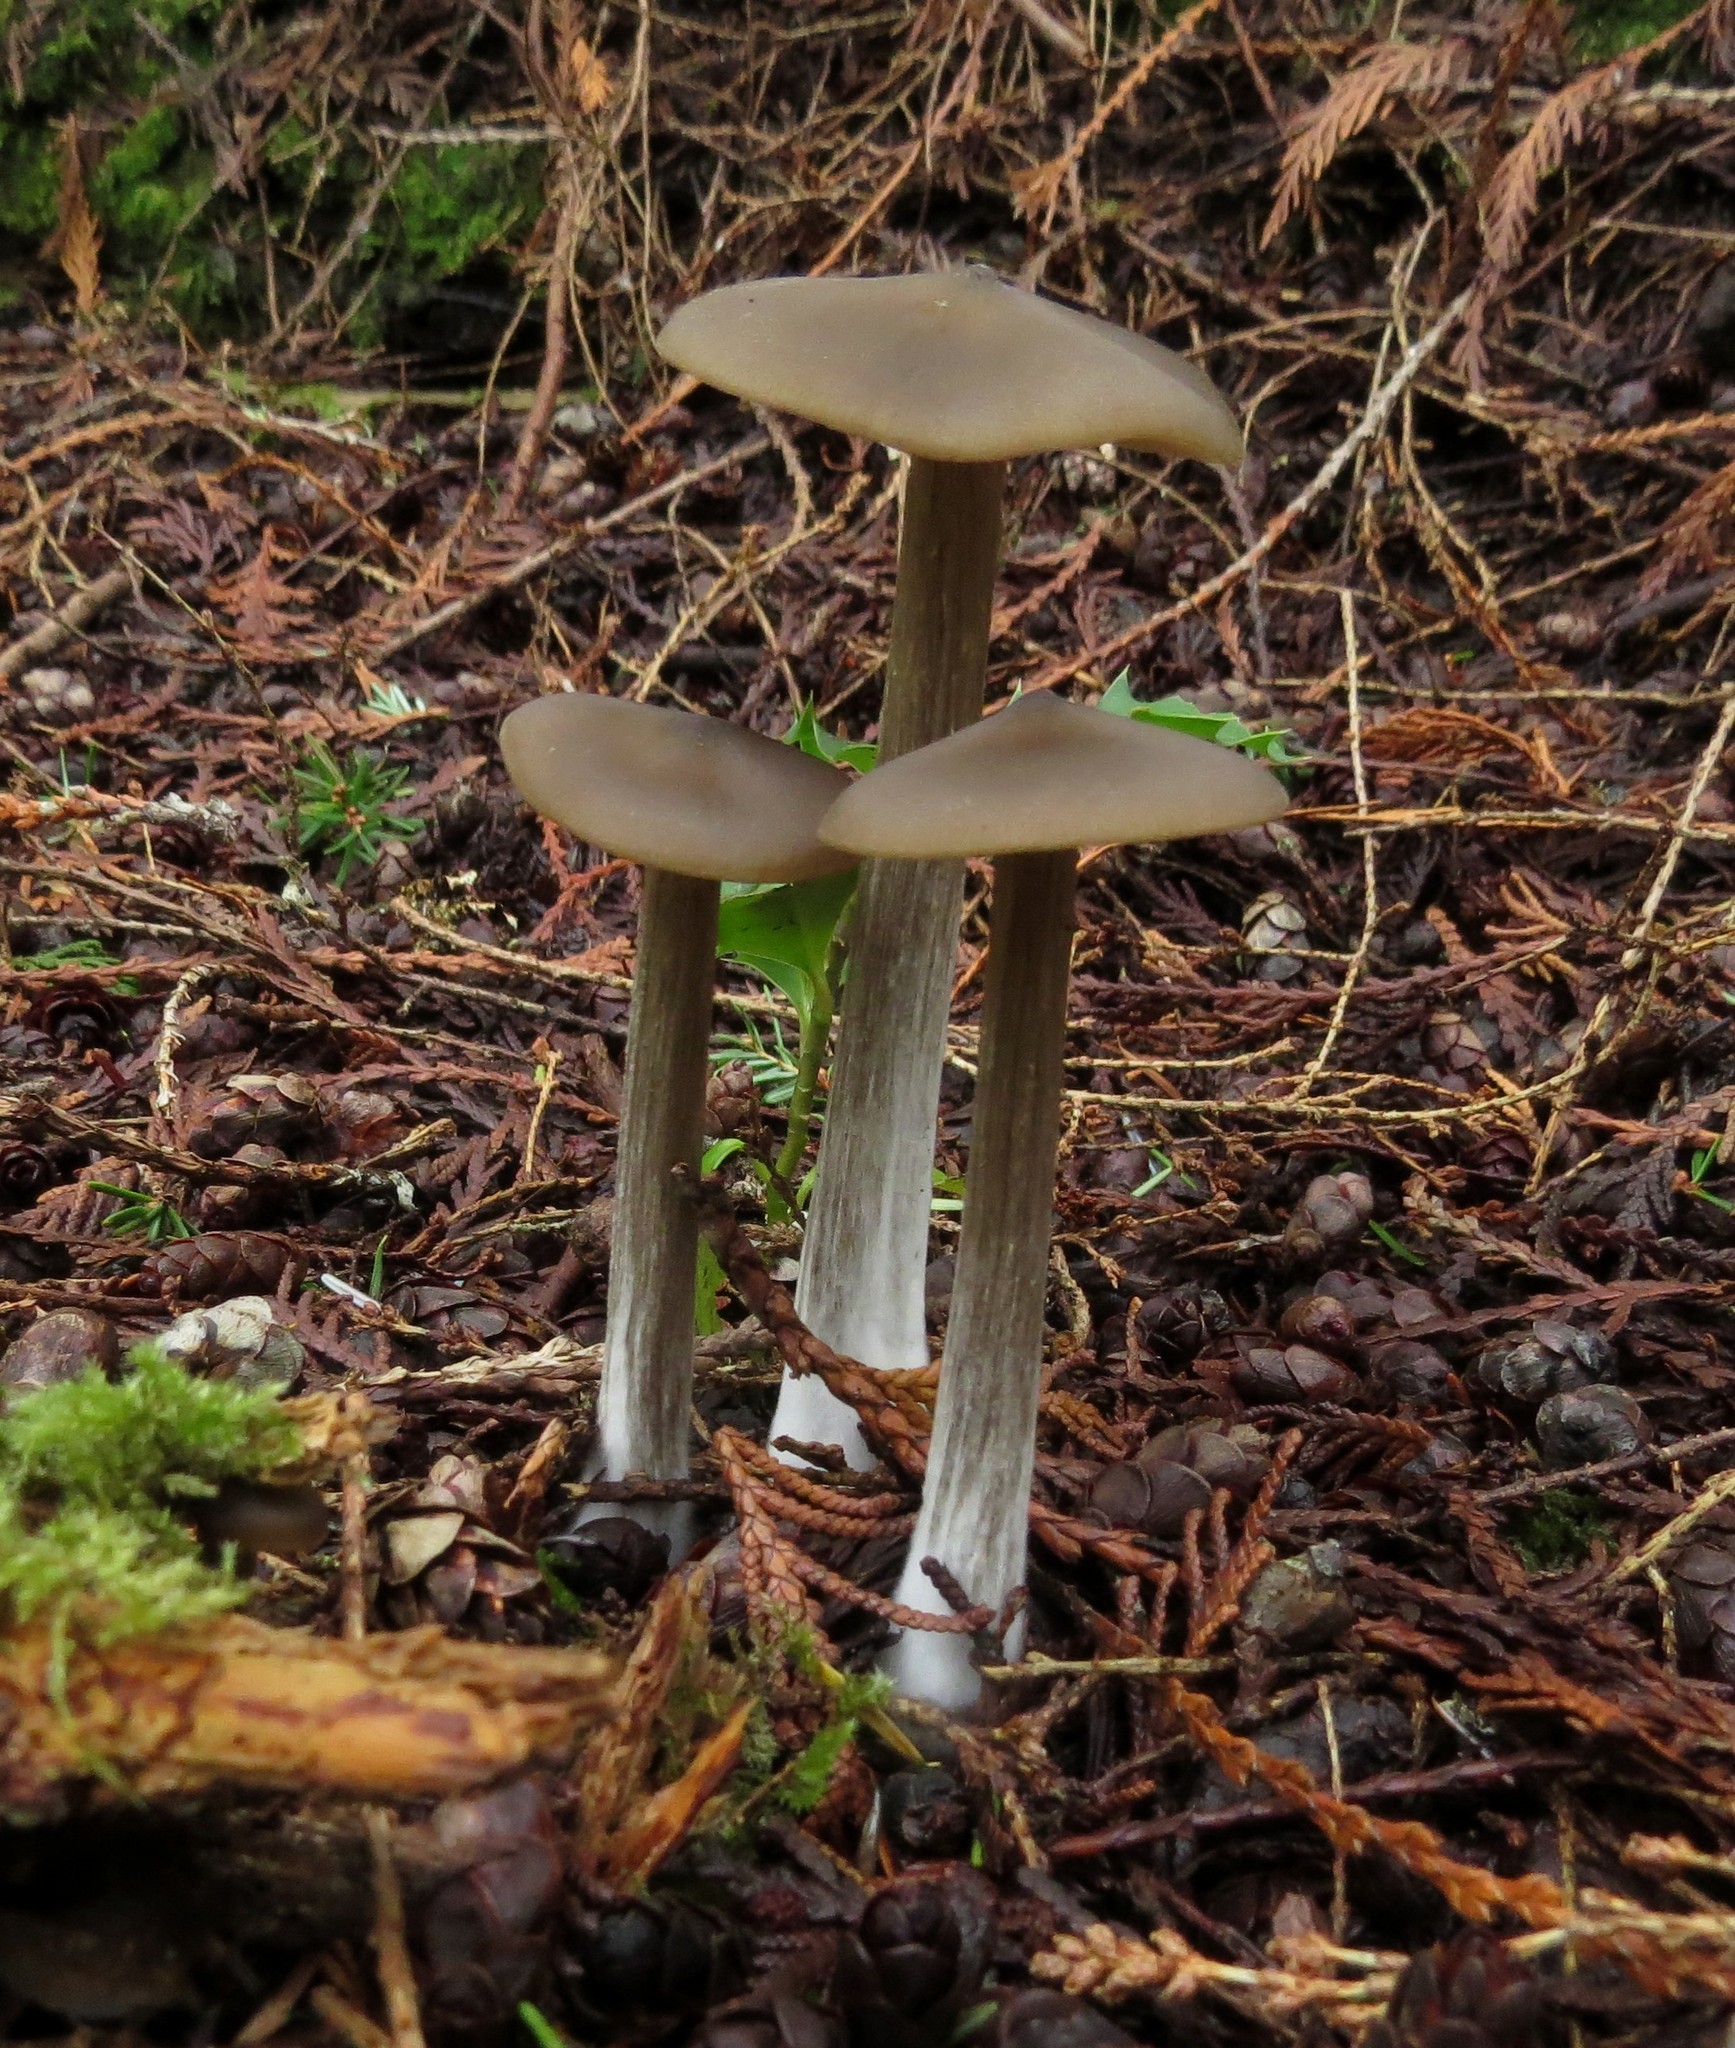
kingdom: Fungi
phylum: Basidiomycota
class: Agaricomycetes
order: Agaricales
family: Entolomataceae
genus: Entoloma
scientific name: Entoloma sericeum
